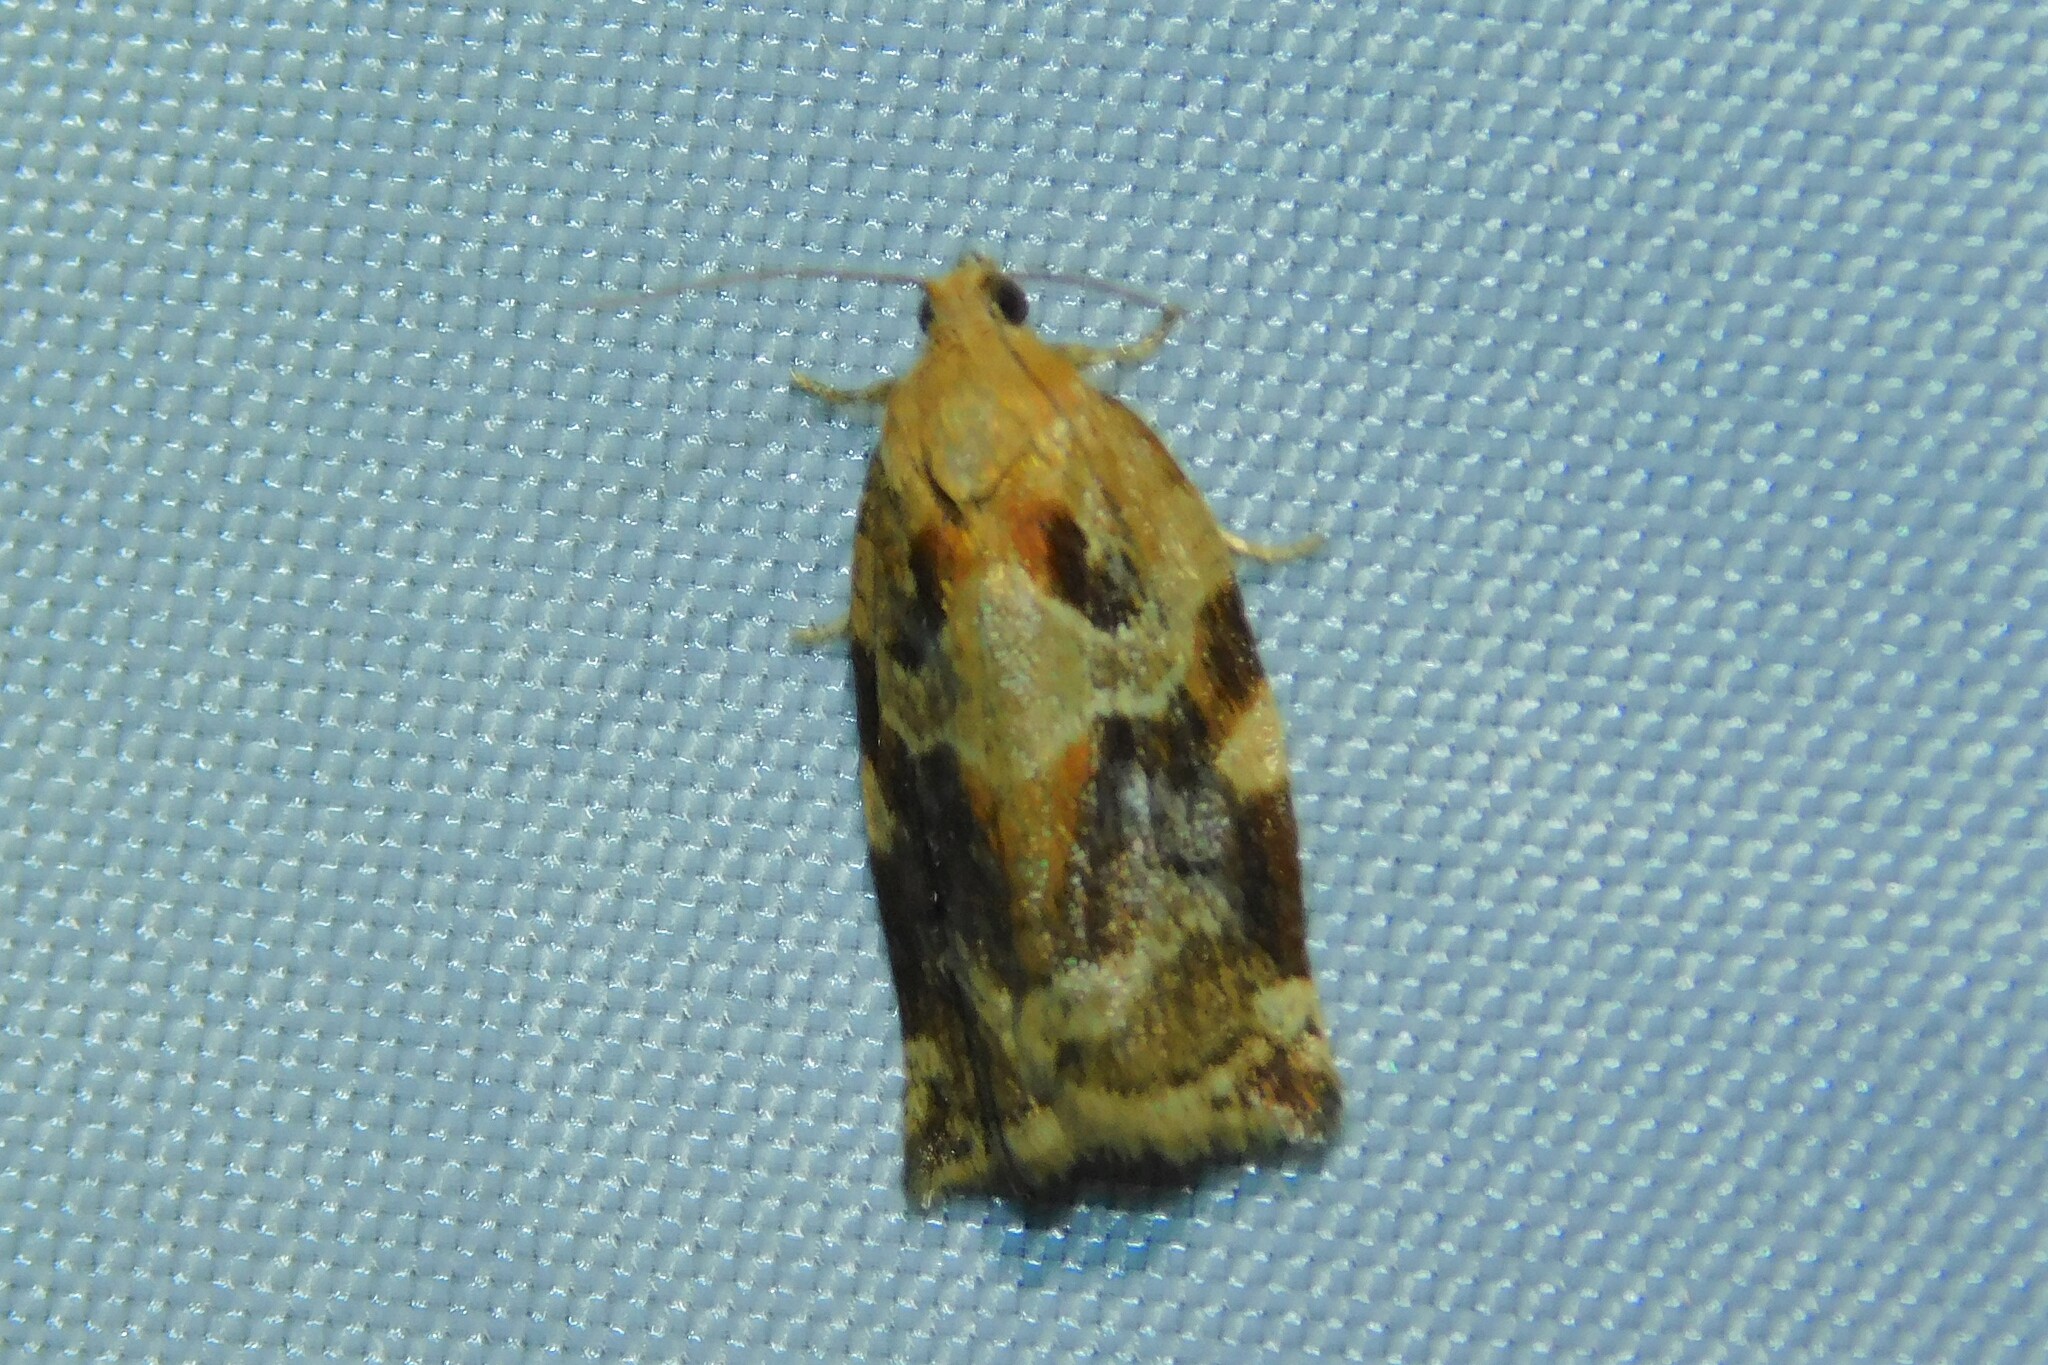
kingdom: Animalia
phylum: Arthropoda
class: Insecta
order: Lepidoptera
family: Tortricidae
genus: Archips
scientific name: Archips xylosteana
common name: Variegated golden tortrix
